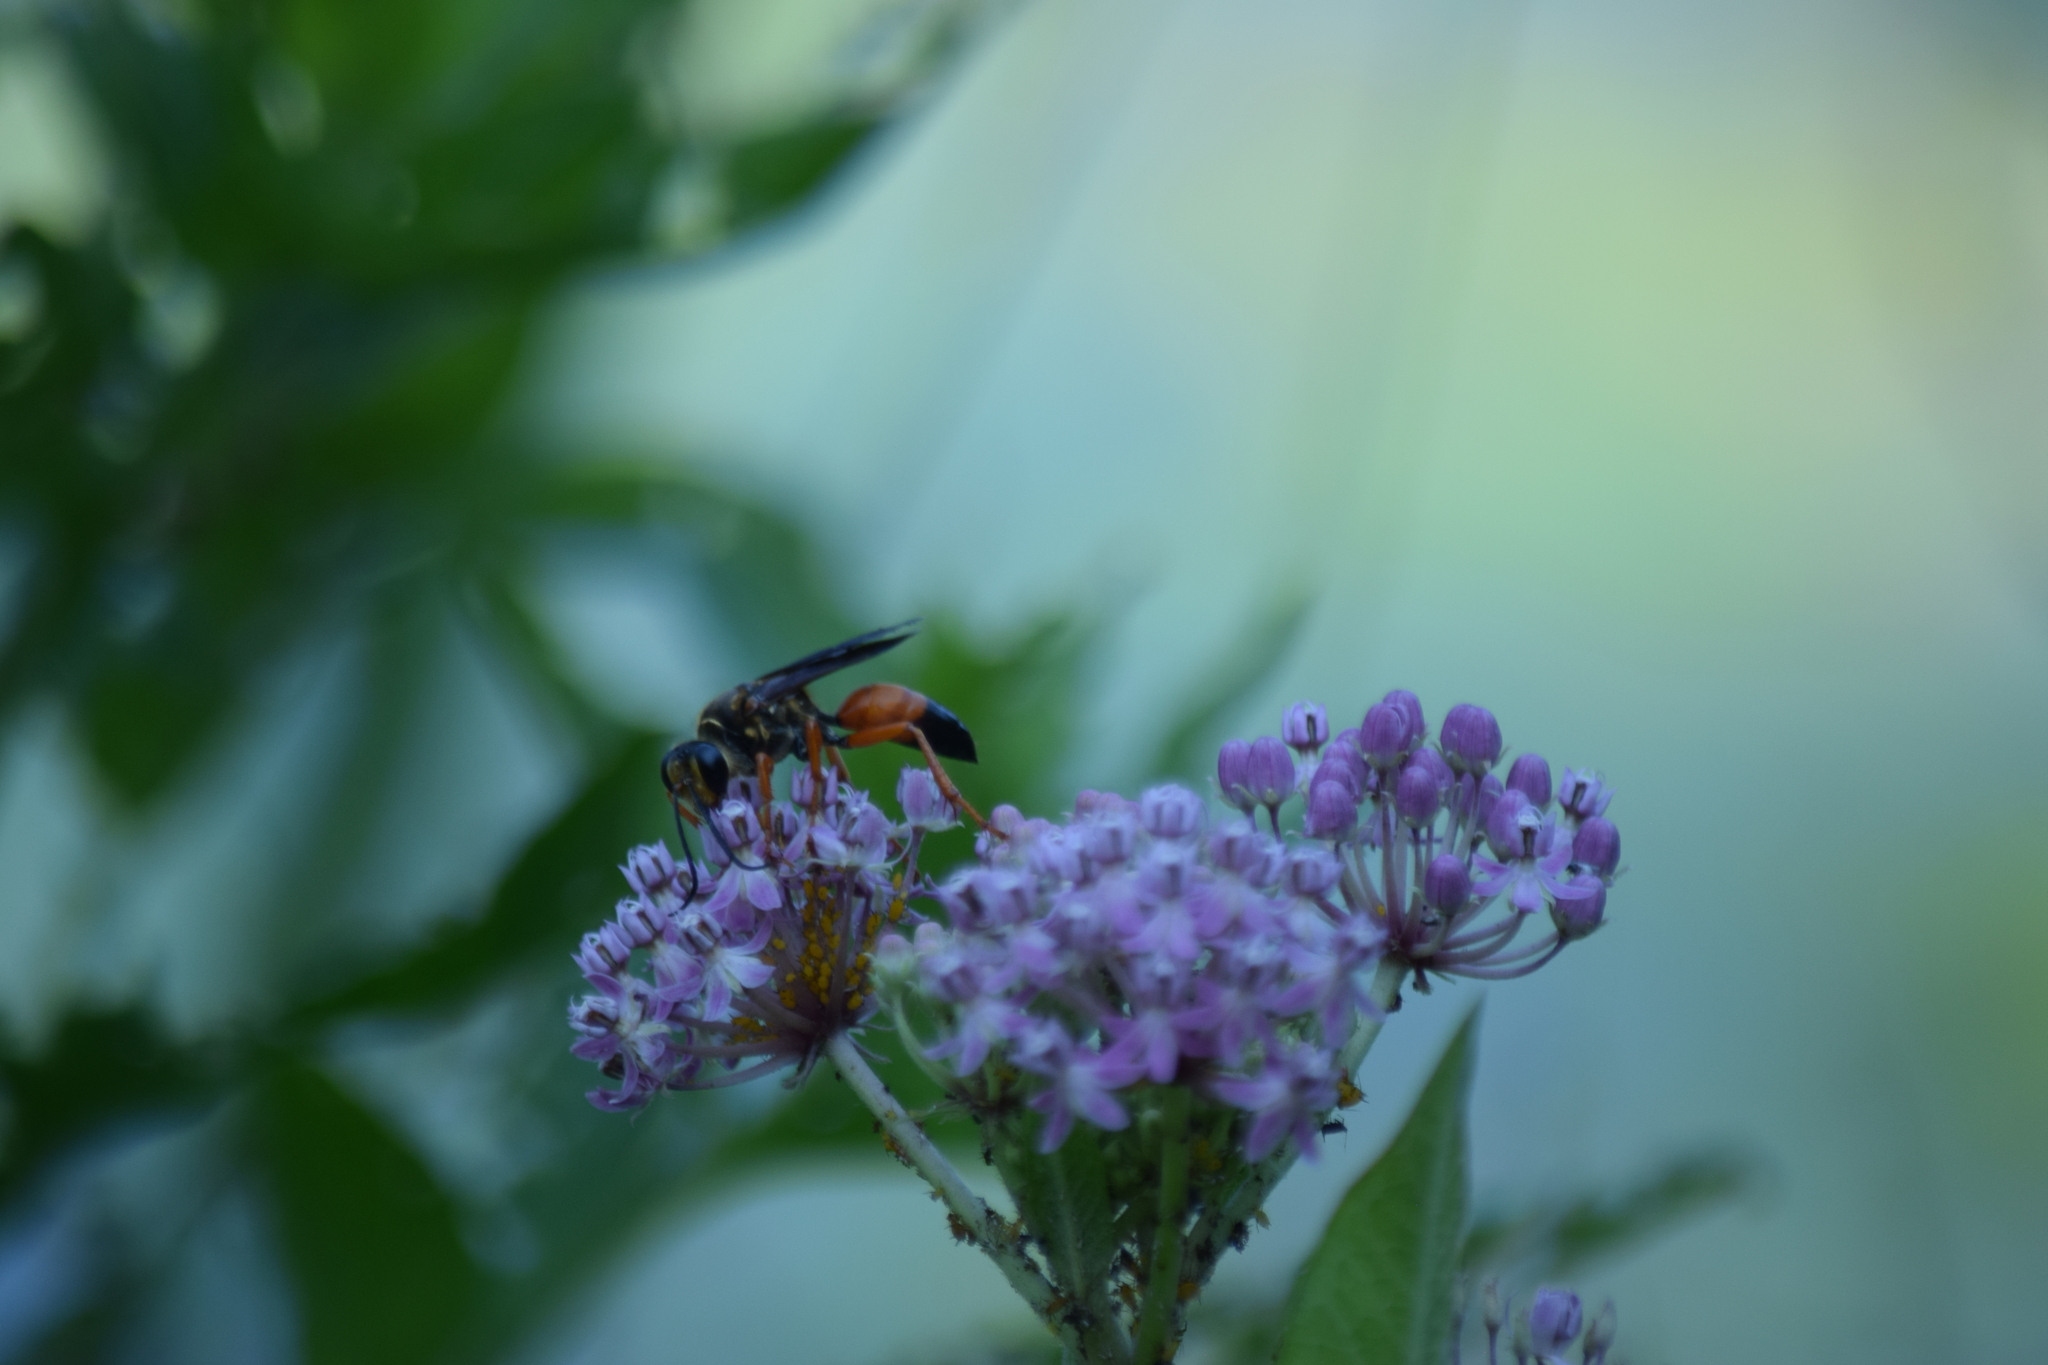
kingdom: Animalia
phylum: Arthropoda
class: Insecta
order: Hymenoptera
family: Sphecidae
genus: Sphex
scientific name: Sphex ichneumoneus
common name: Great golden digger wasp
